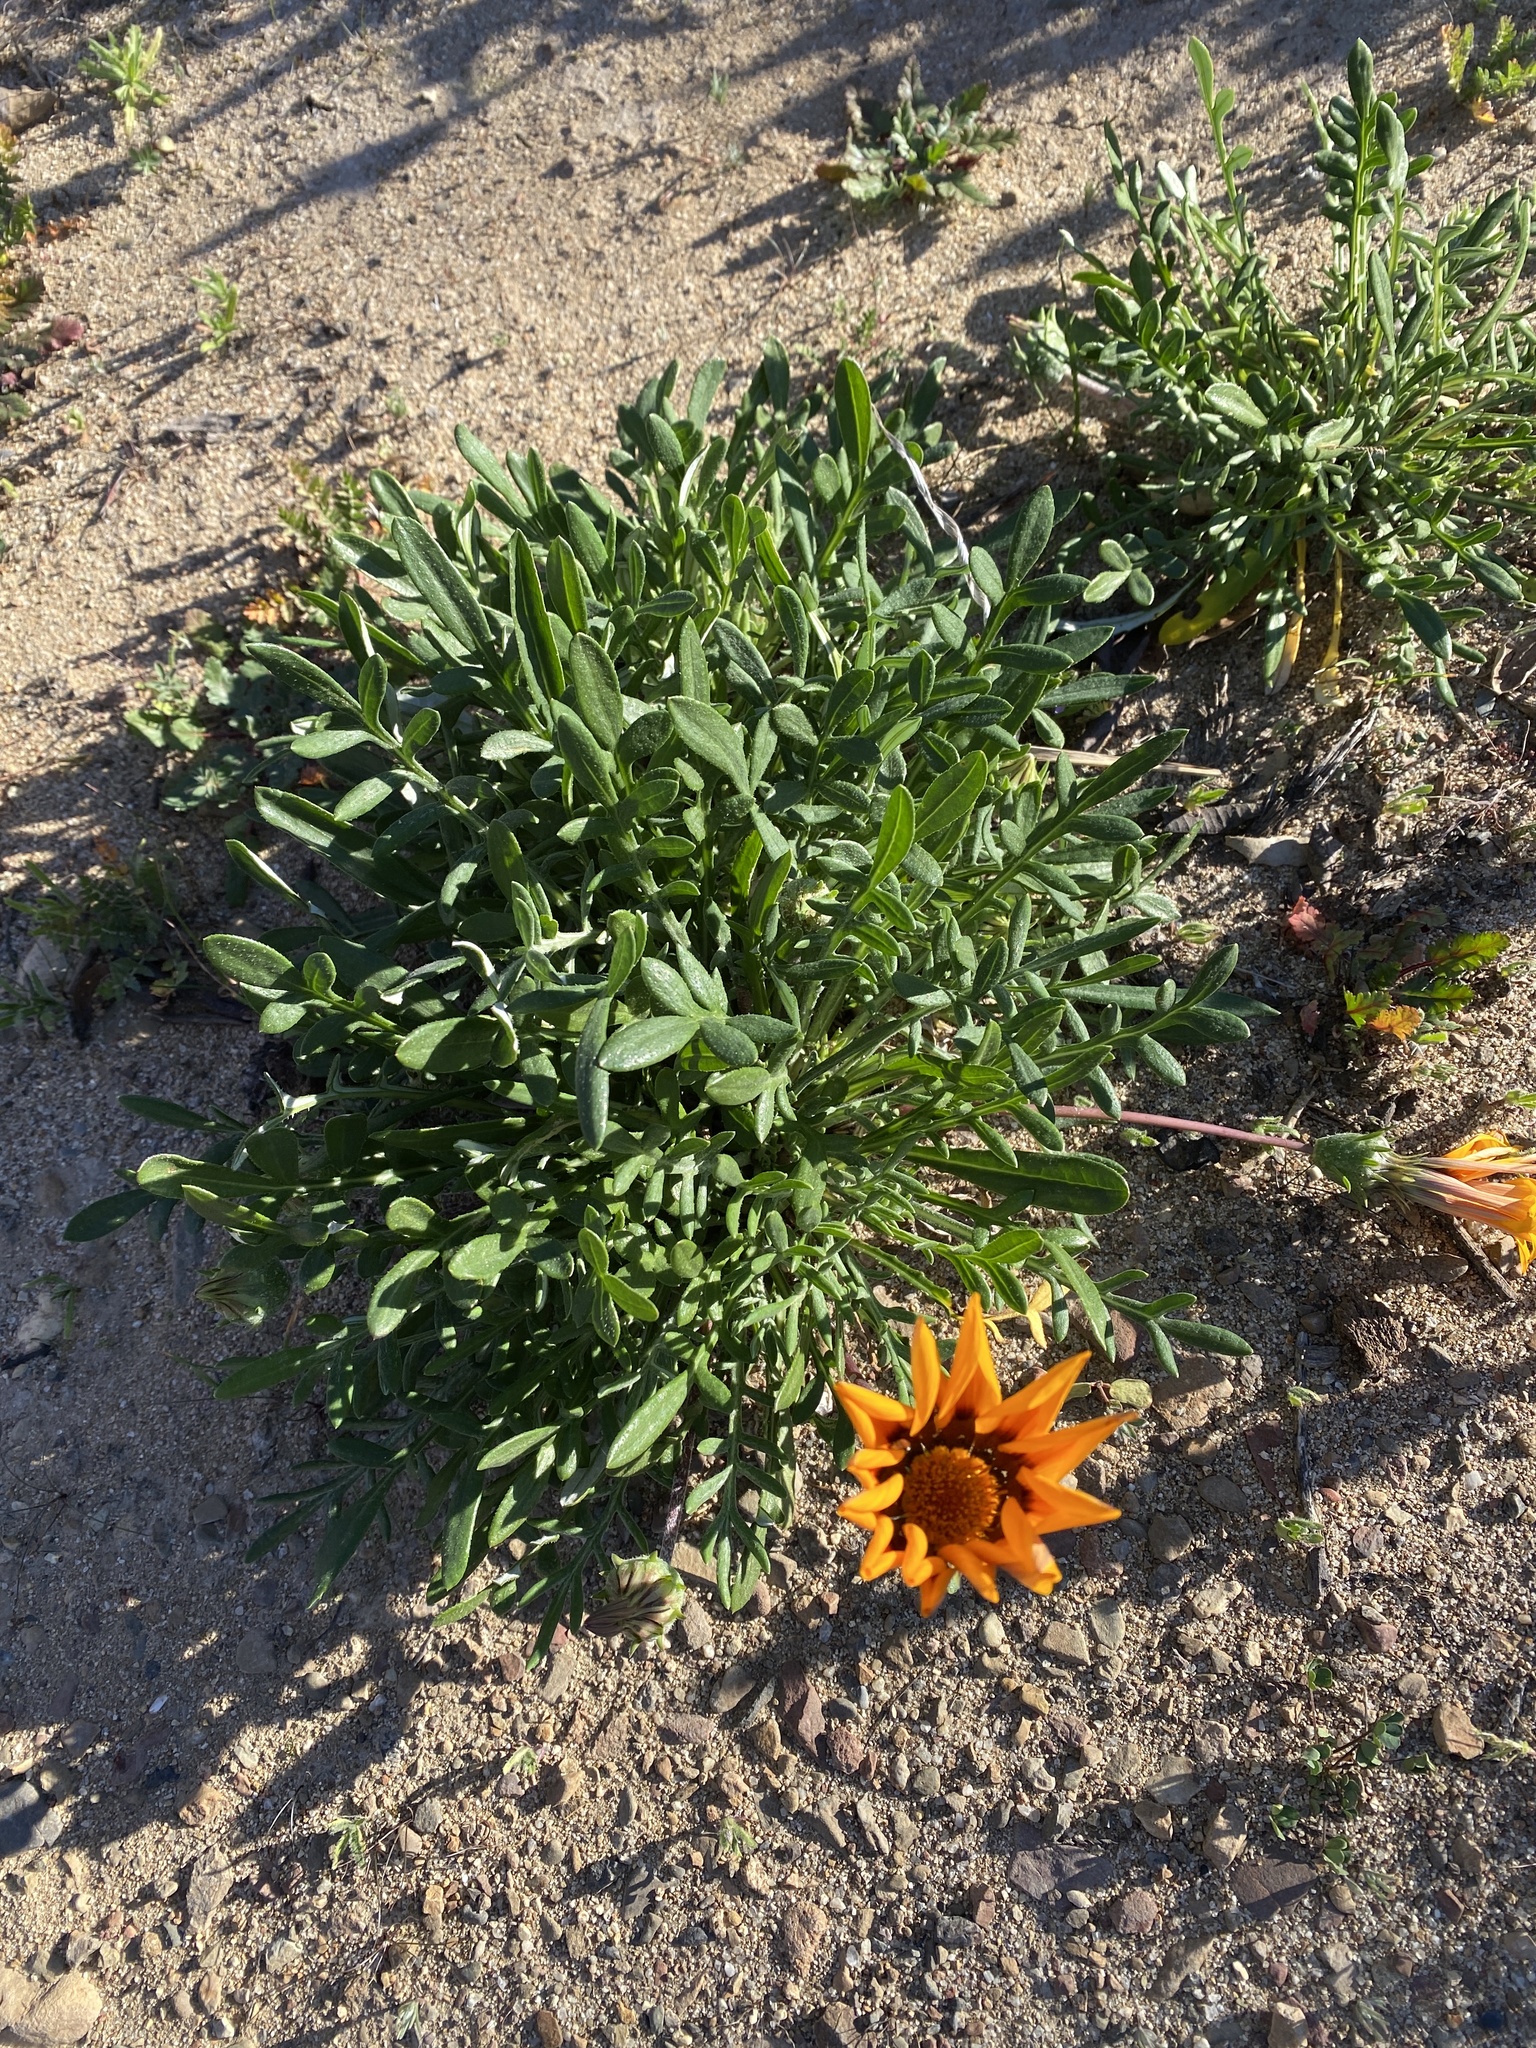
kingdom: Plantae
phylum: Tracheophyta
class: Magnoliopsida
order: Asterales
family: Asteraceae
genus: Gazania
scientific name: Gazania linearis
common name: Treasureflower
